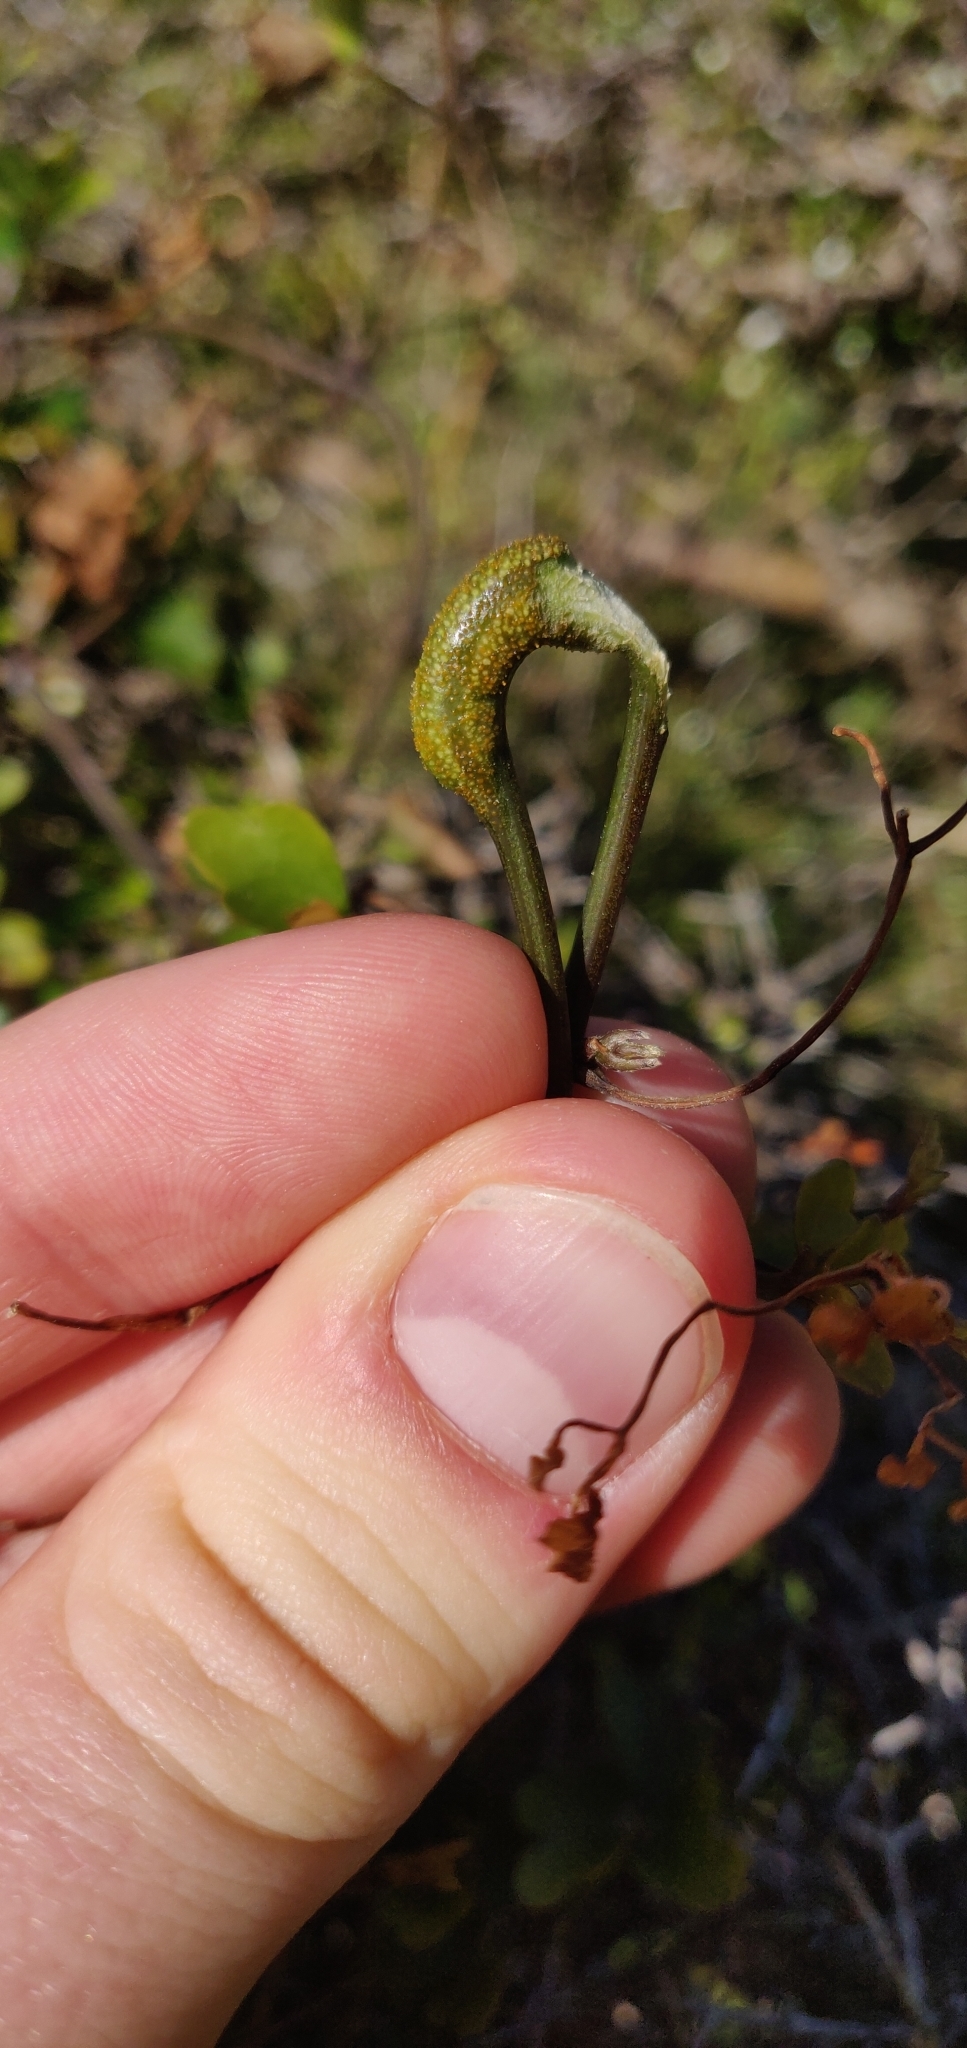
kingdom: Fungi
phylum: Basidiomycota
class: Pucciniomycetes
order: Pucciniales
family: Pucciniaceae
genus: Puccinia
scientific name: Puccinia otagensis
